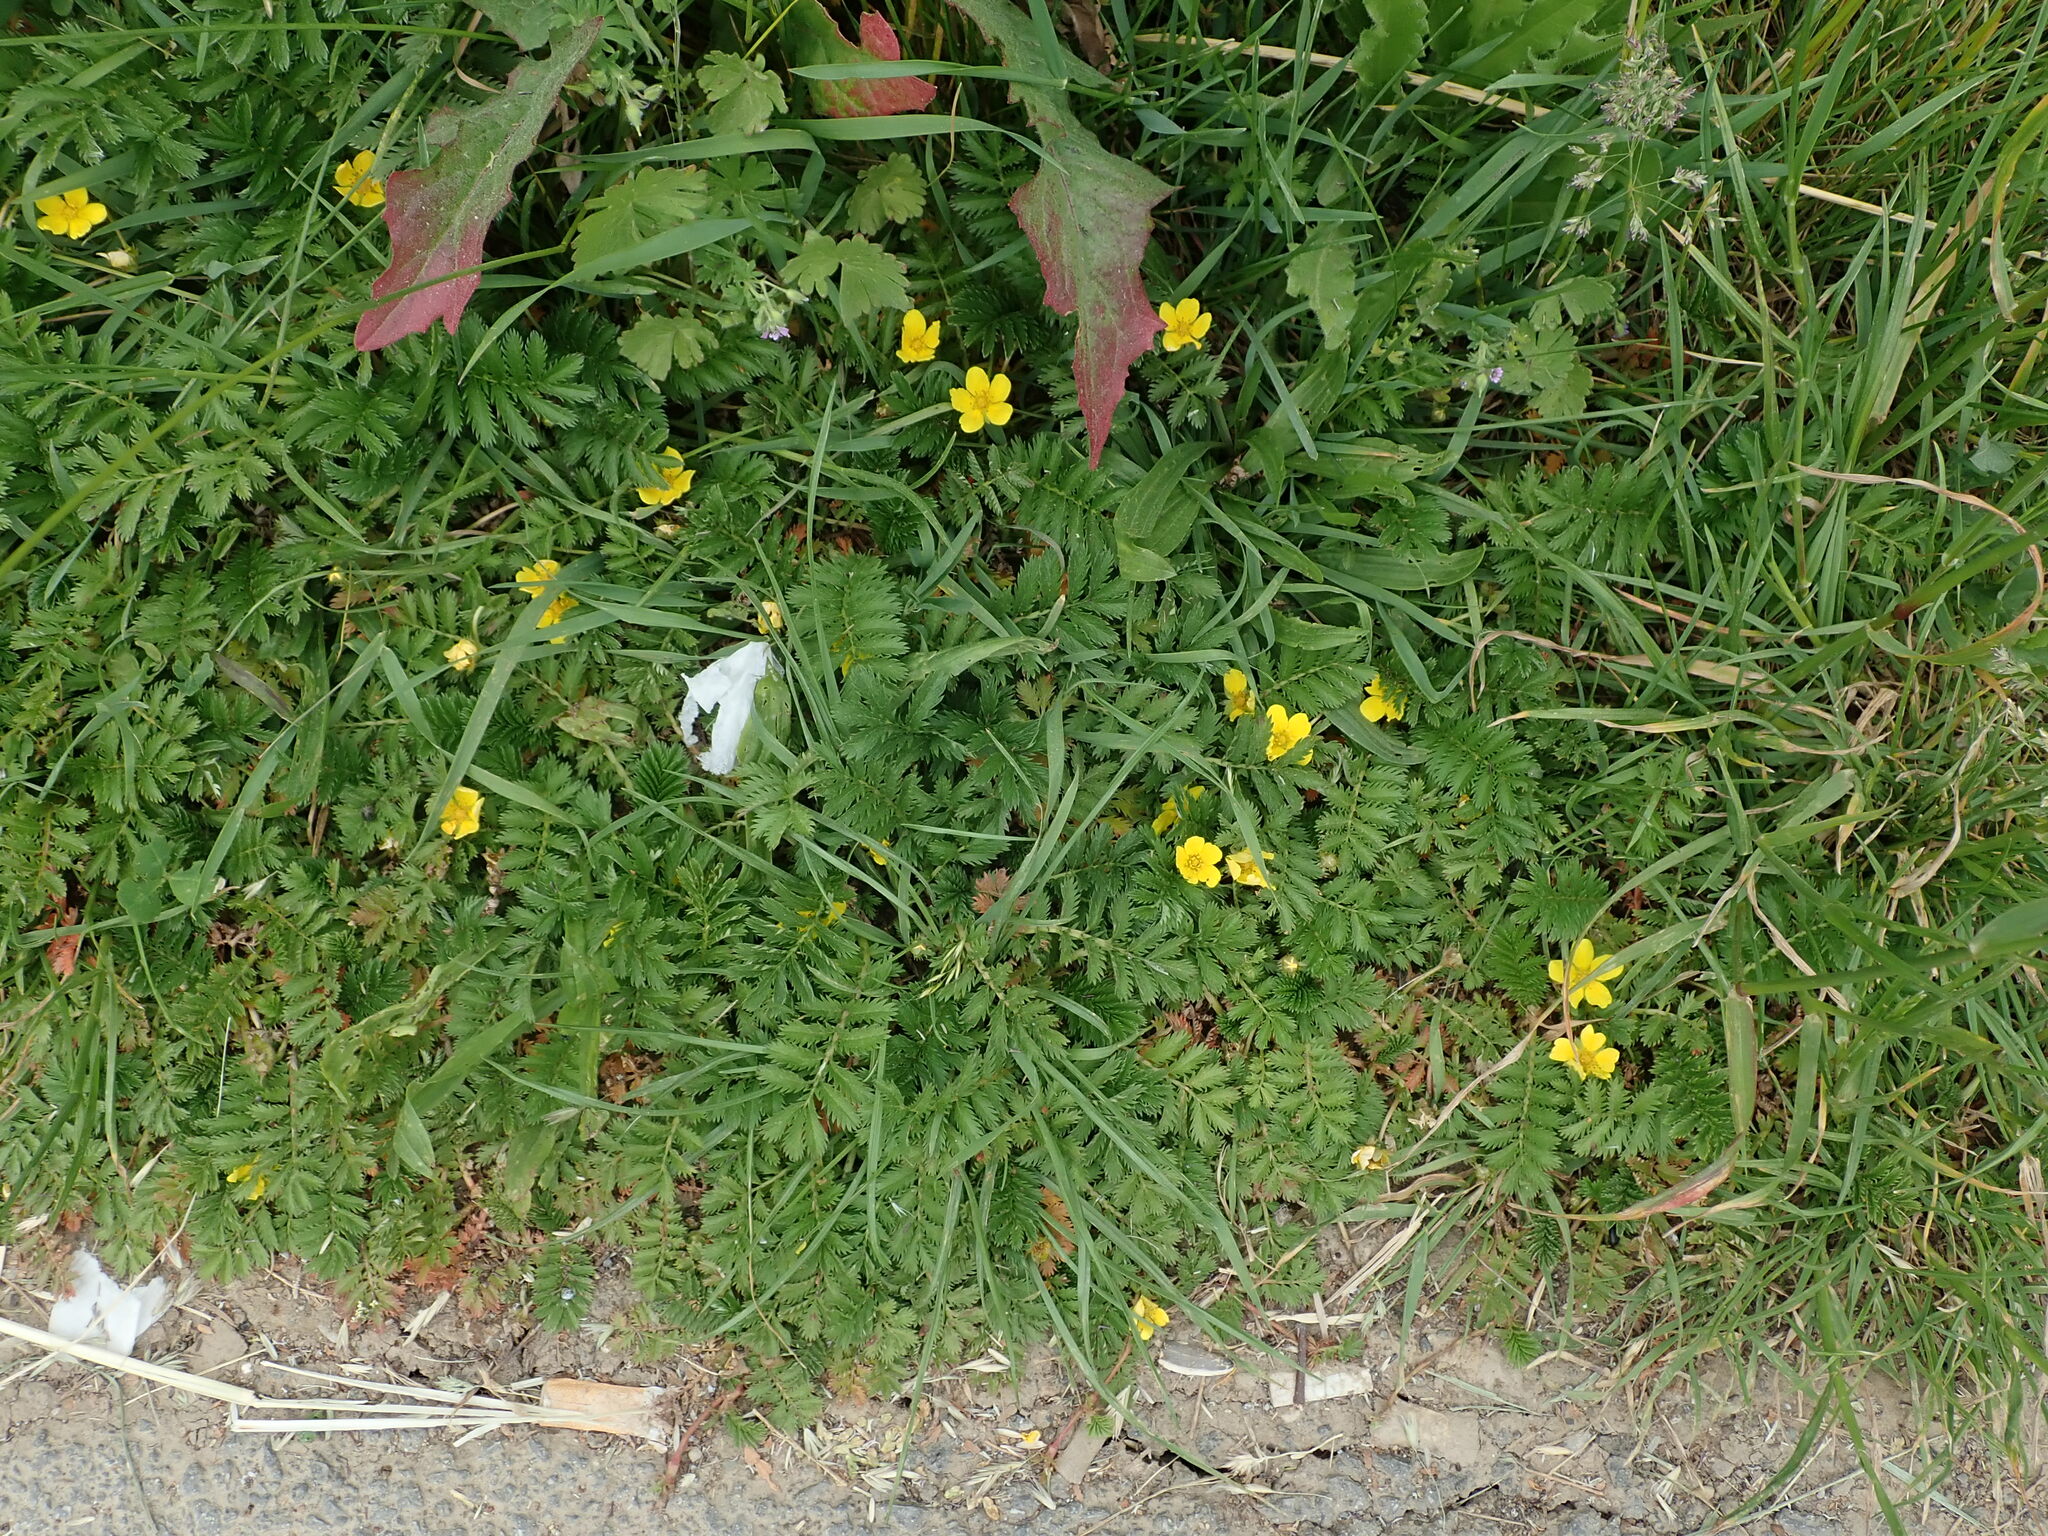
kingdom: Plantae
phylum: Tracheophyta
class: Magnoliopsida
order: Rosales
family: Rosaceae
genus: Argentina
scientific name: Argentina anserina
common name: Common silverweed
